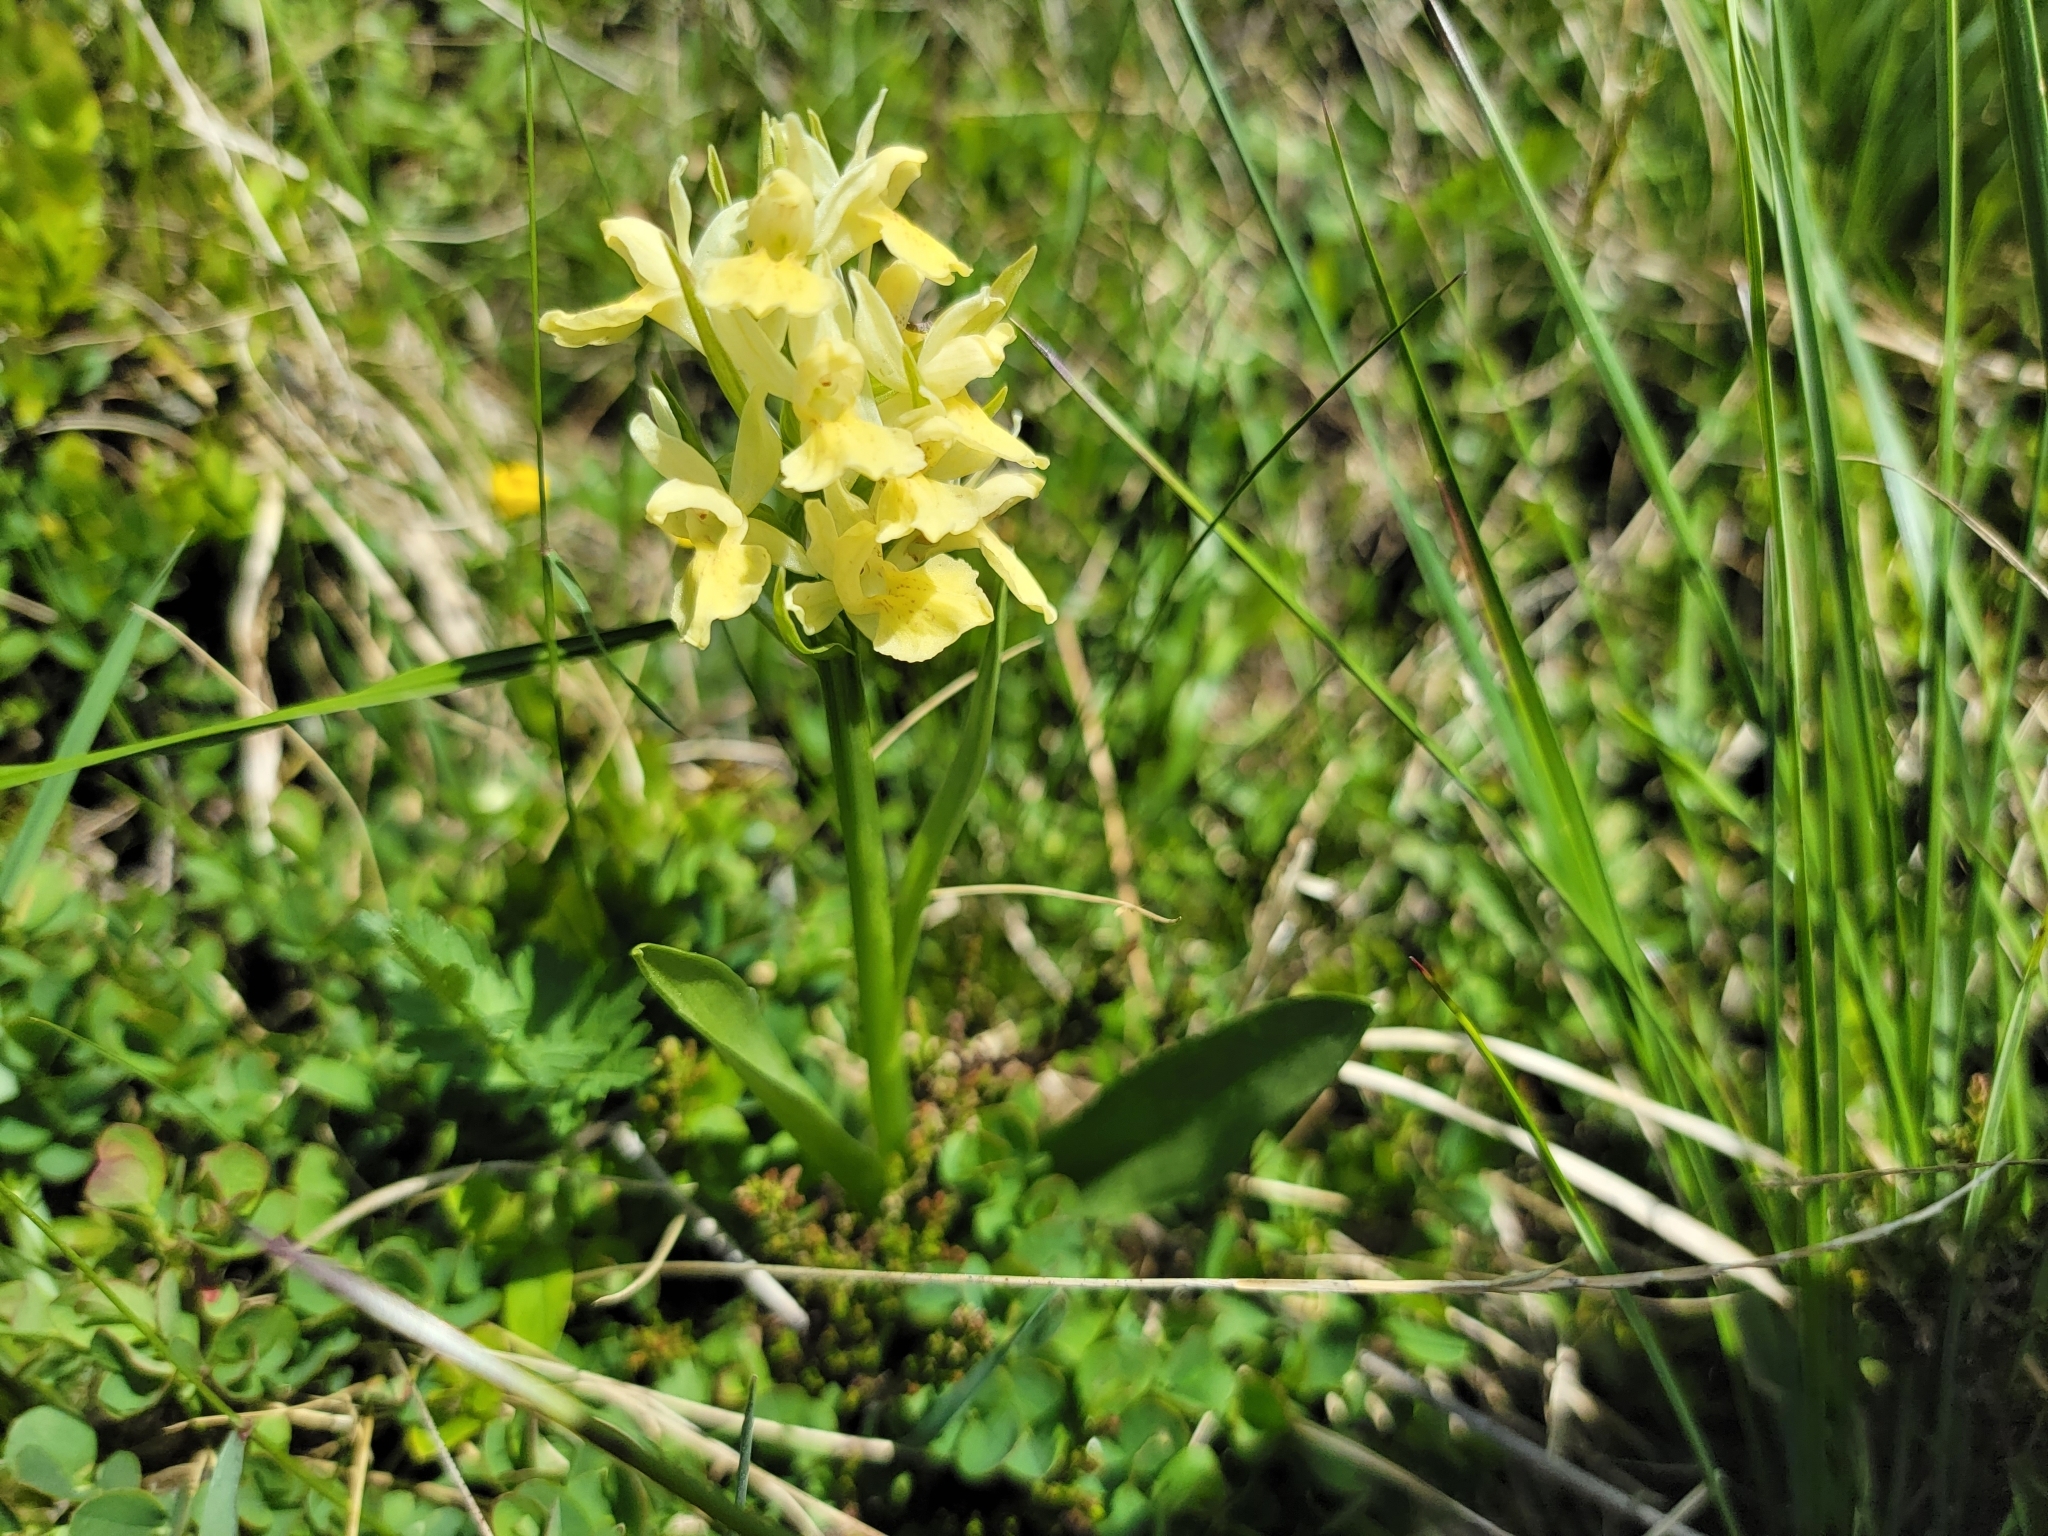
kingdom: Plantae
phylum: Tracheophyta
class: Liliopsida
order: Asparagales
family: Orchidaceae
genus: Dactylorhiza
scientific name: Dactylorhiza sambucina
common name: Elder-flowered orchid
